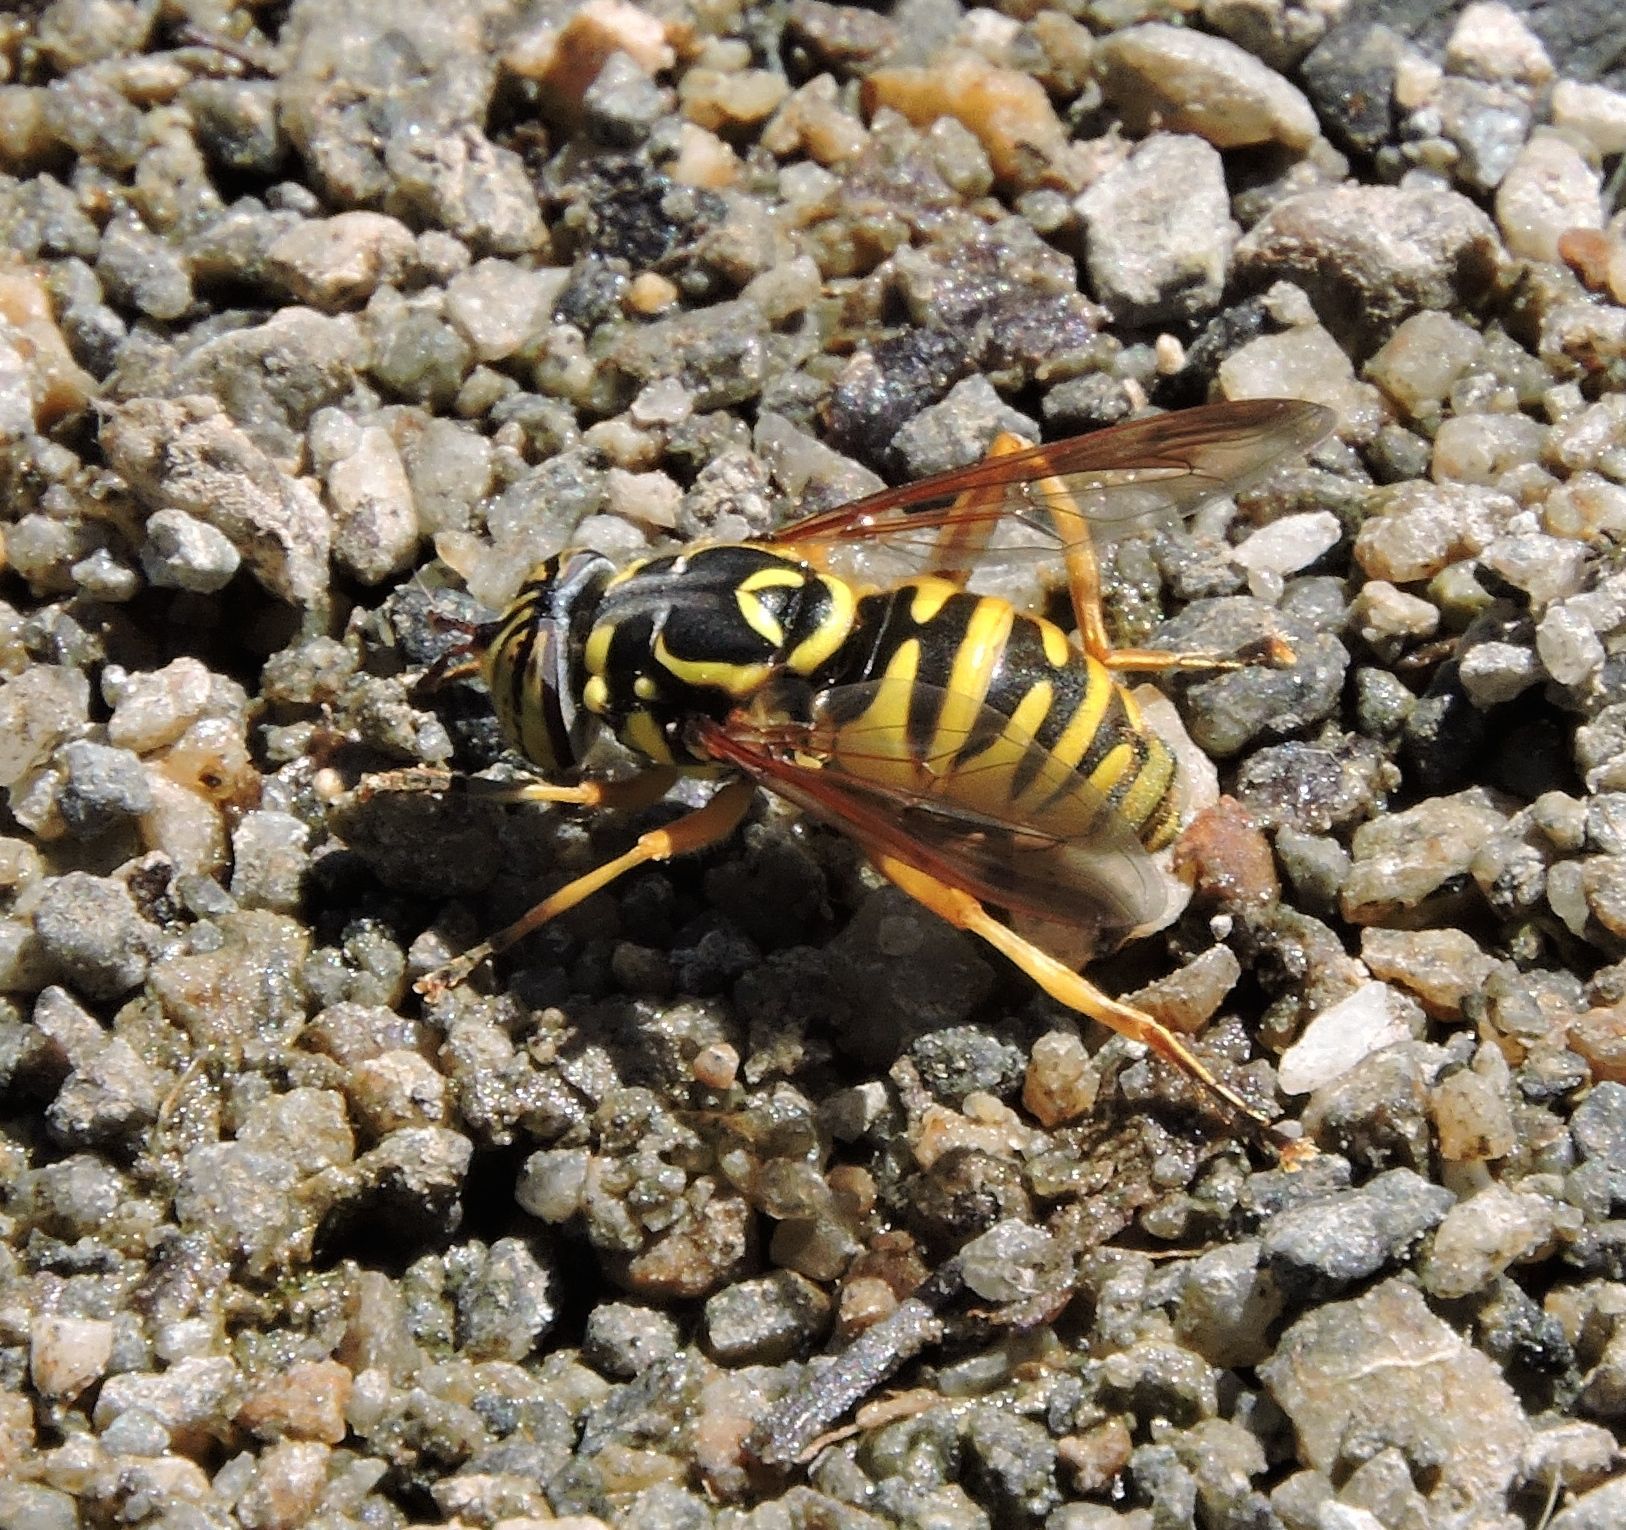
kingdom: Animalia
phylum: Arthropoda
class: Insecta
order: Diptera
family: Syrphidae
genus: Spilomyia
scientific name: Spilomyia interrupta
